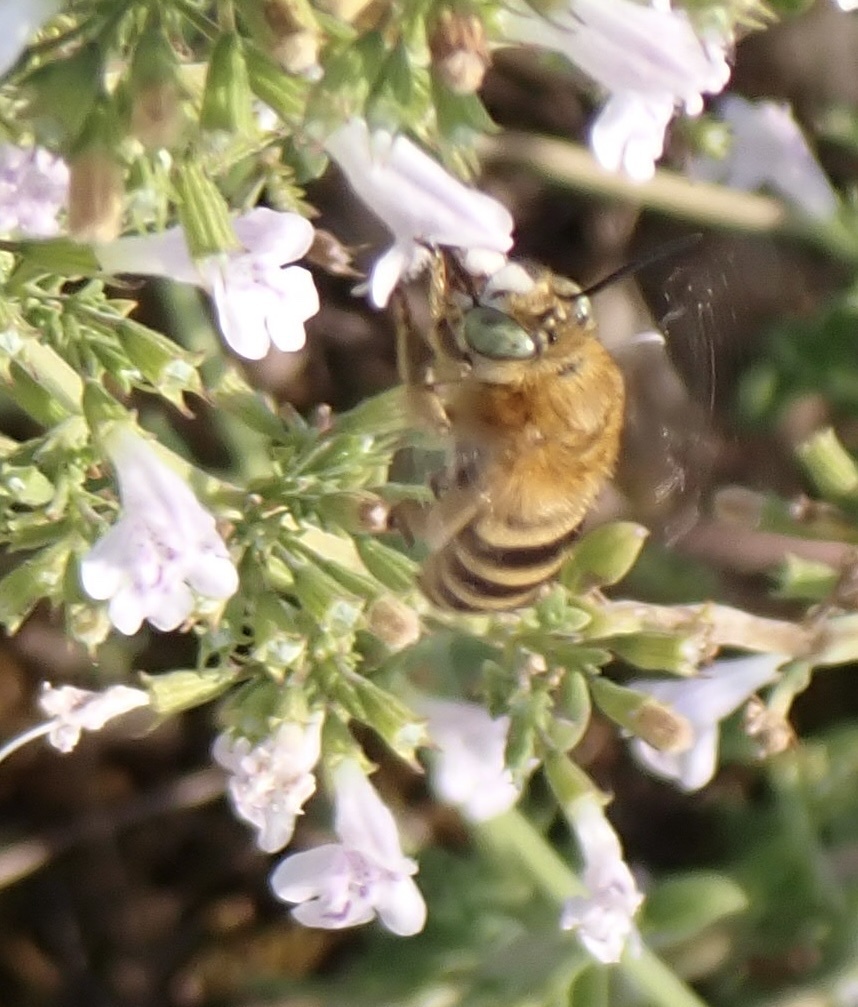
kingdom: Animalia
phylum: Arthropoda
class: Insecta
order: Hymenoptera
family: Apidae
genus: Amegilla
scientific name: Amegilla garrula
